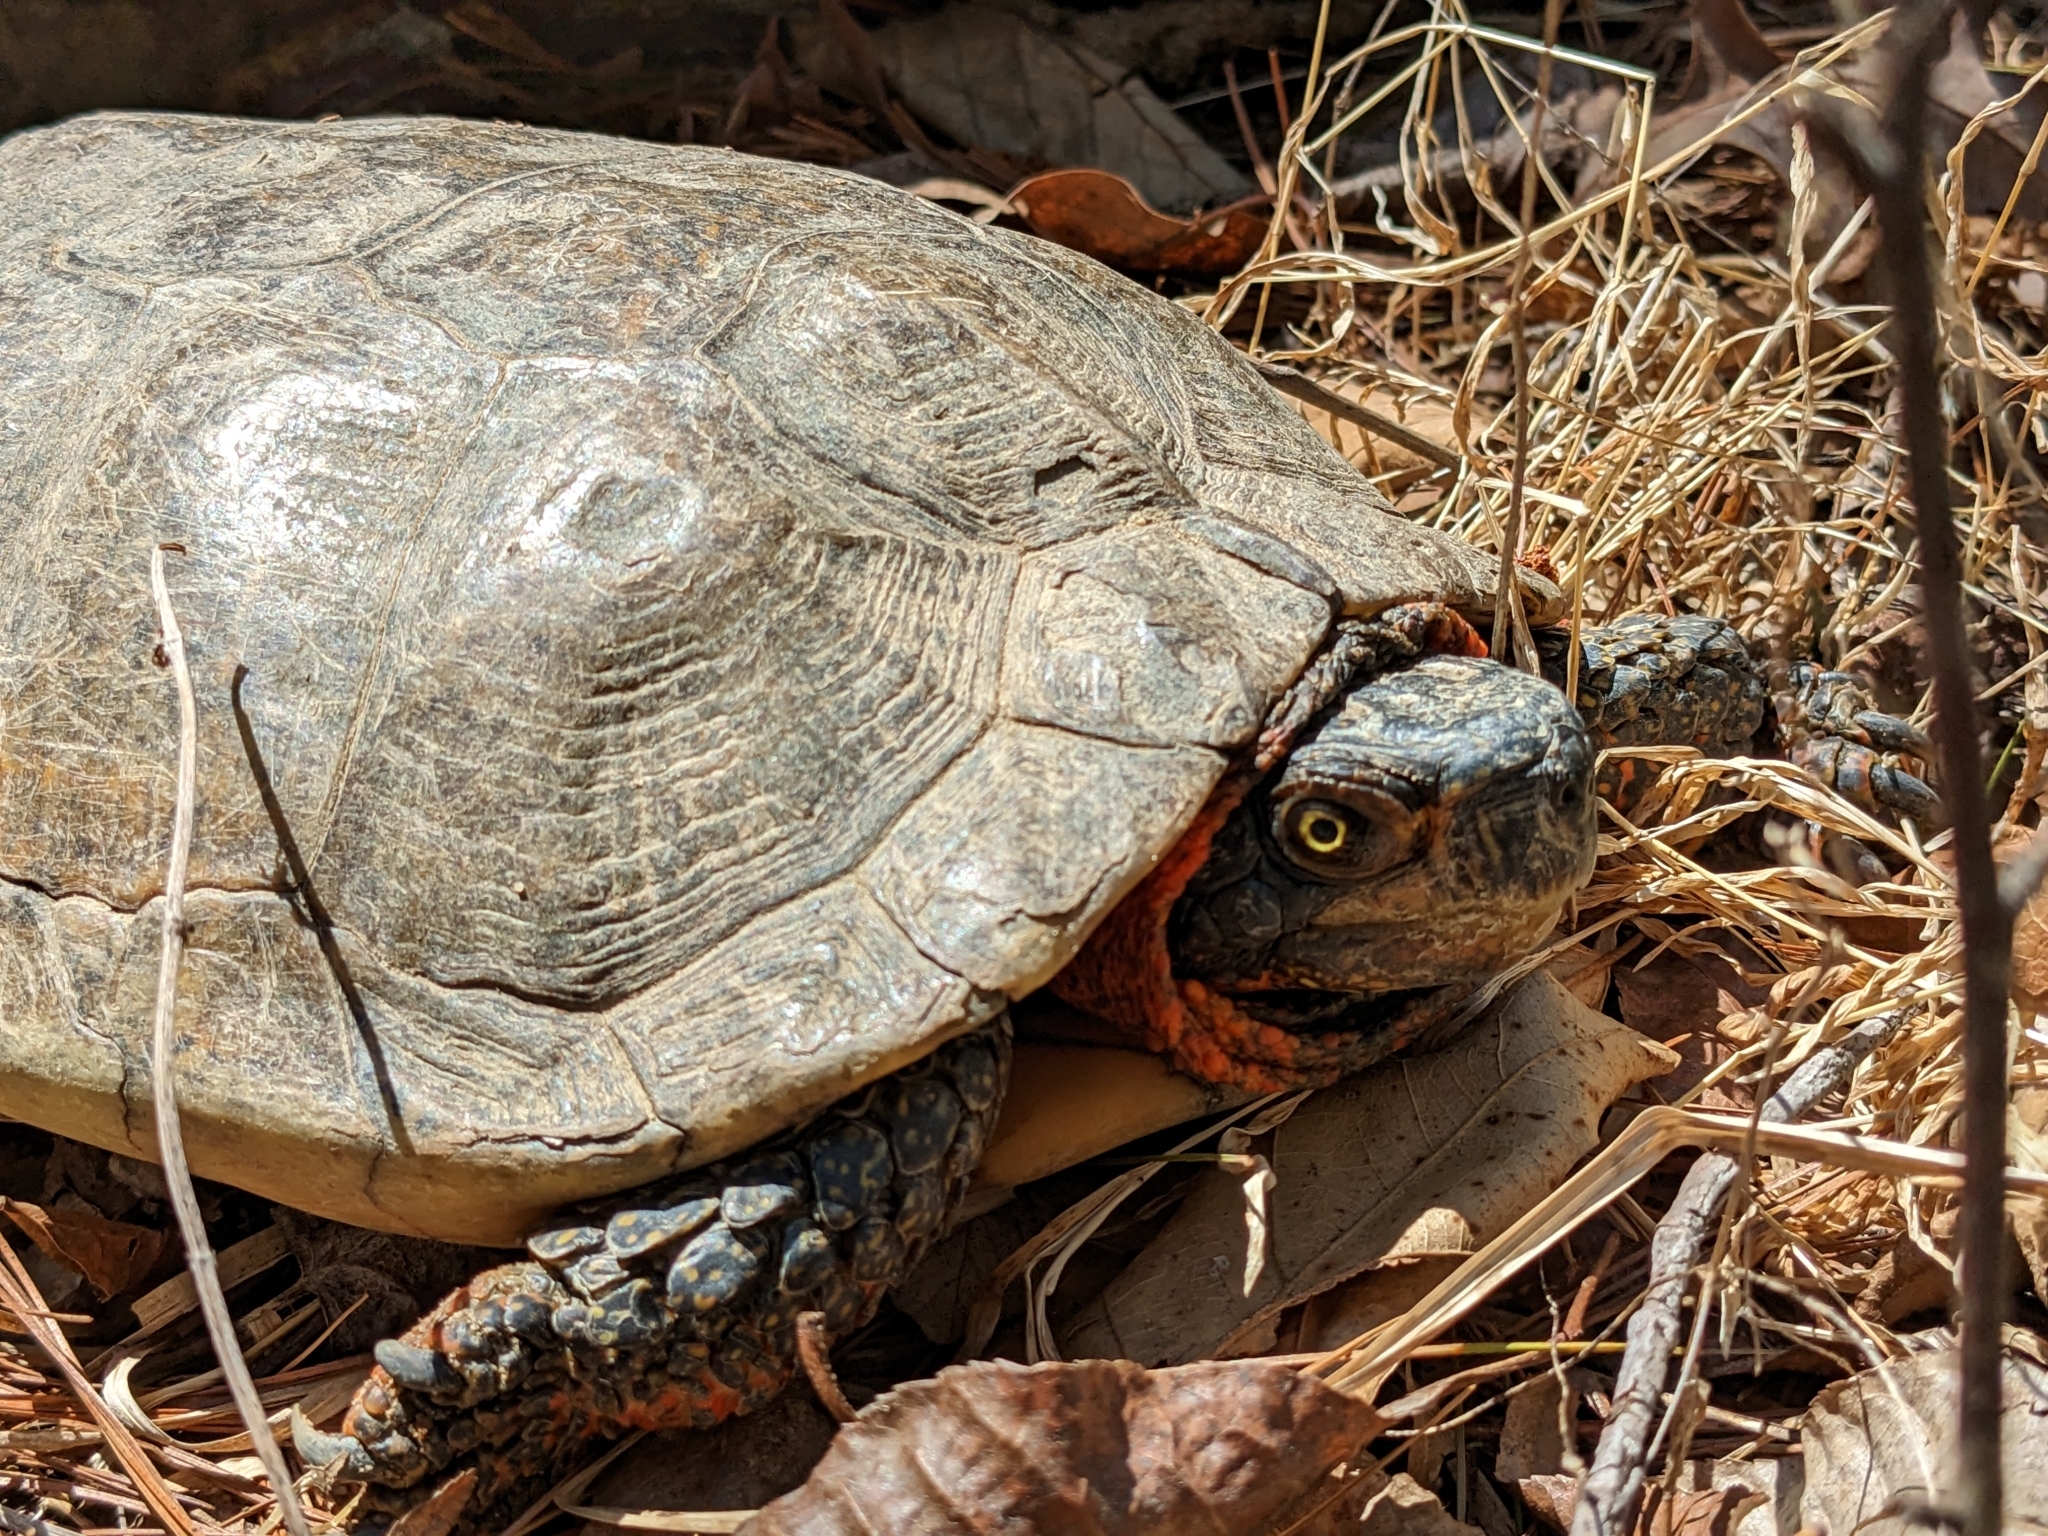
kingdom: Animalia
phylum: Chordata
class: Testudines
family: Emydidae
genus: Glyptemys
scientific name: Glyptemys insculpta
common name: Wood turtle
